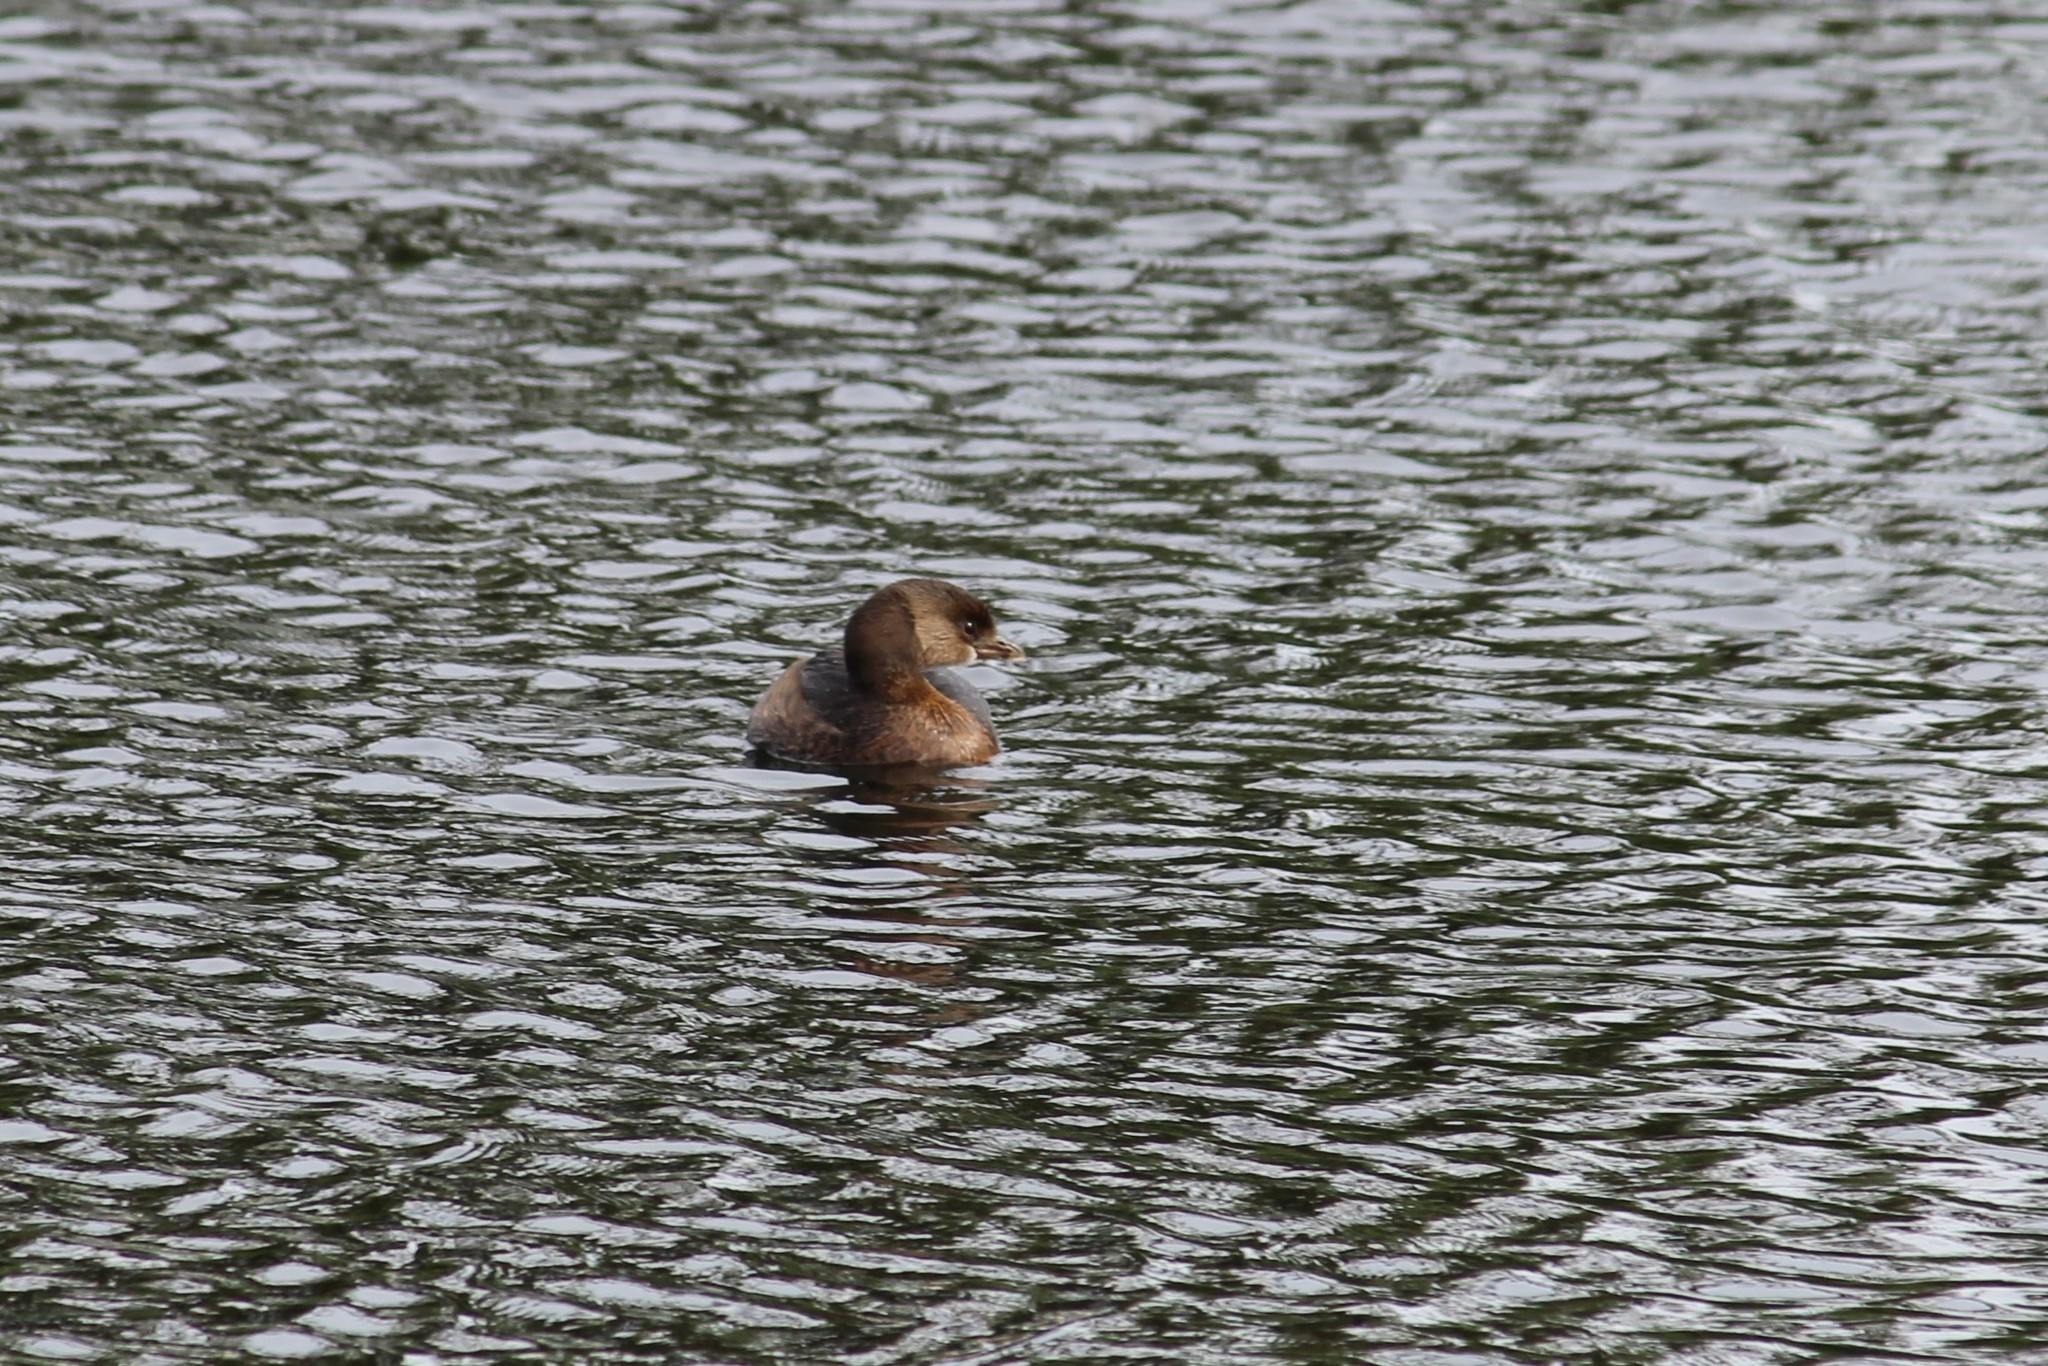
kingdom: Animalia
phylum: Chordata
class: Aves
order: Podicipediformes
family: Podicipedidae
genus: Podilymbus
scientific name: Podilymbus podiceps
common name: Pied-billed grebe
